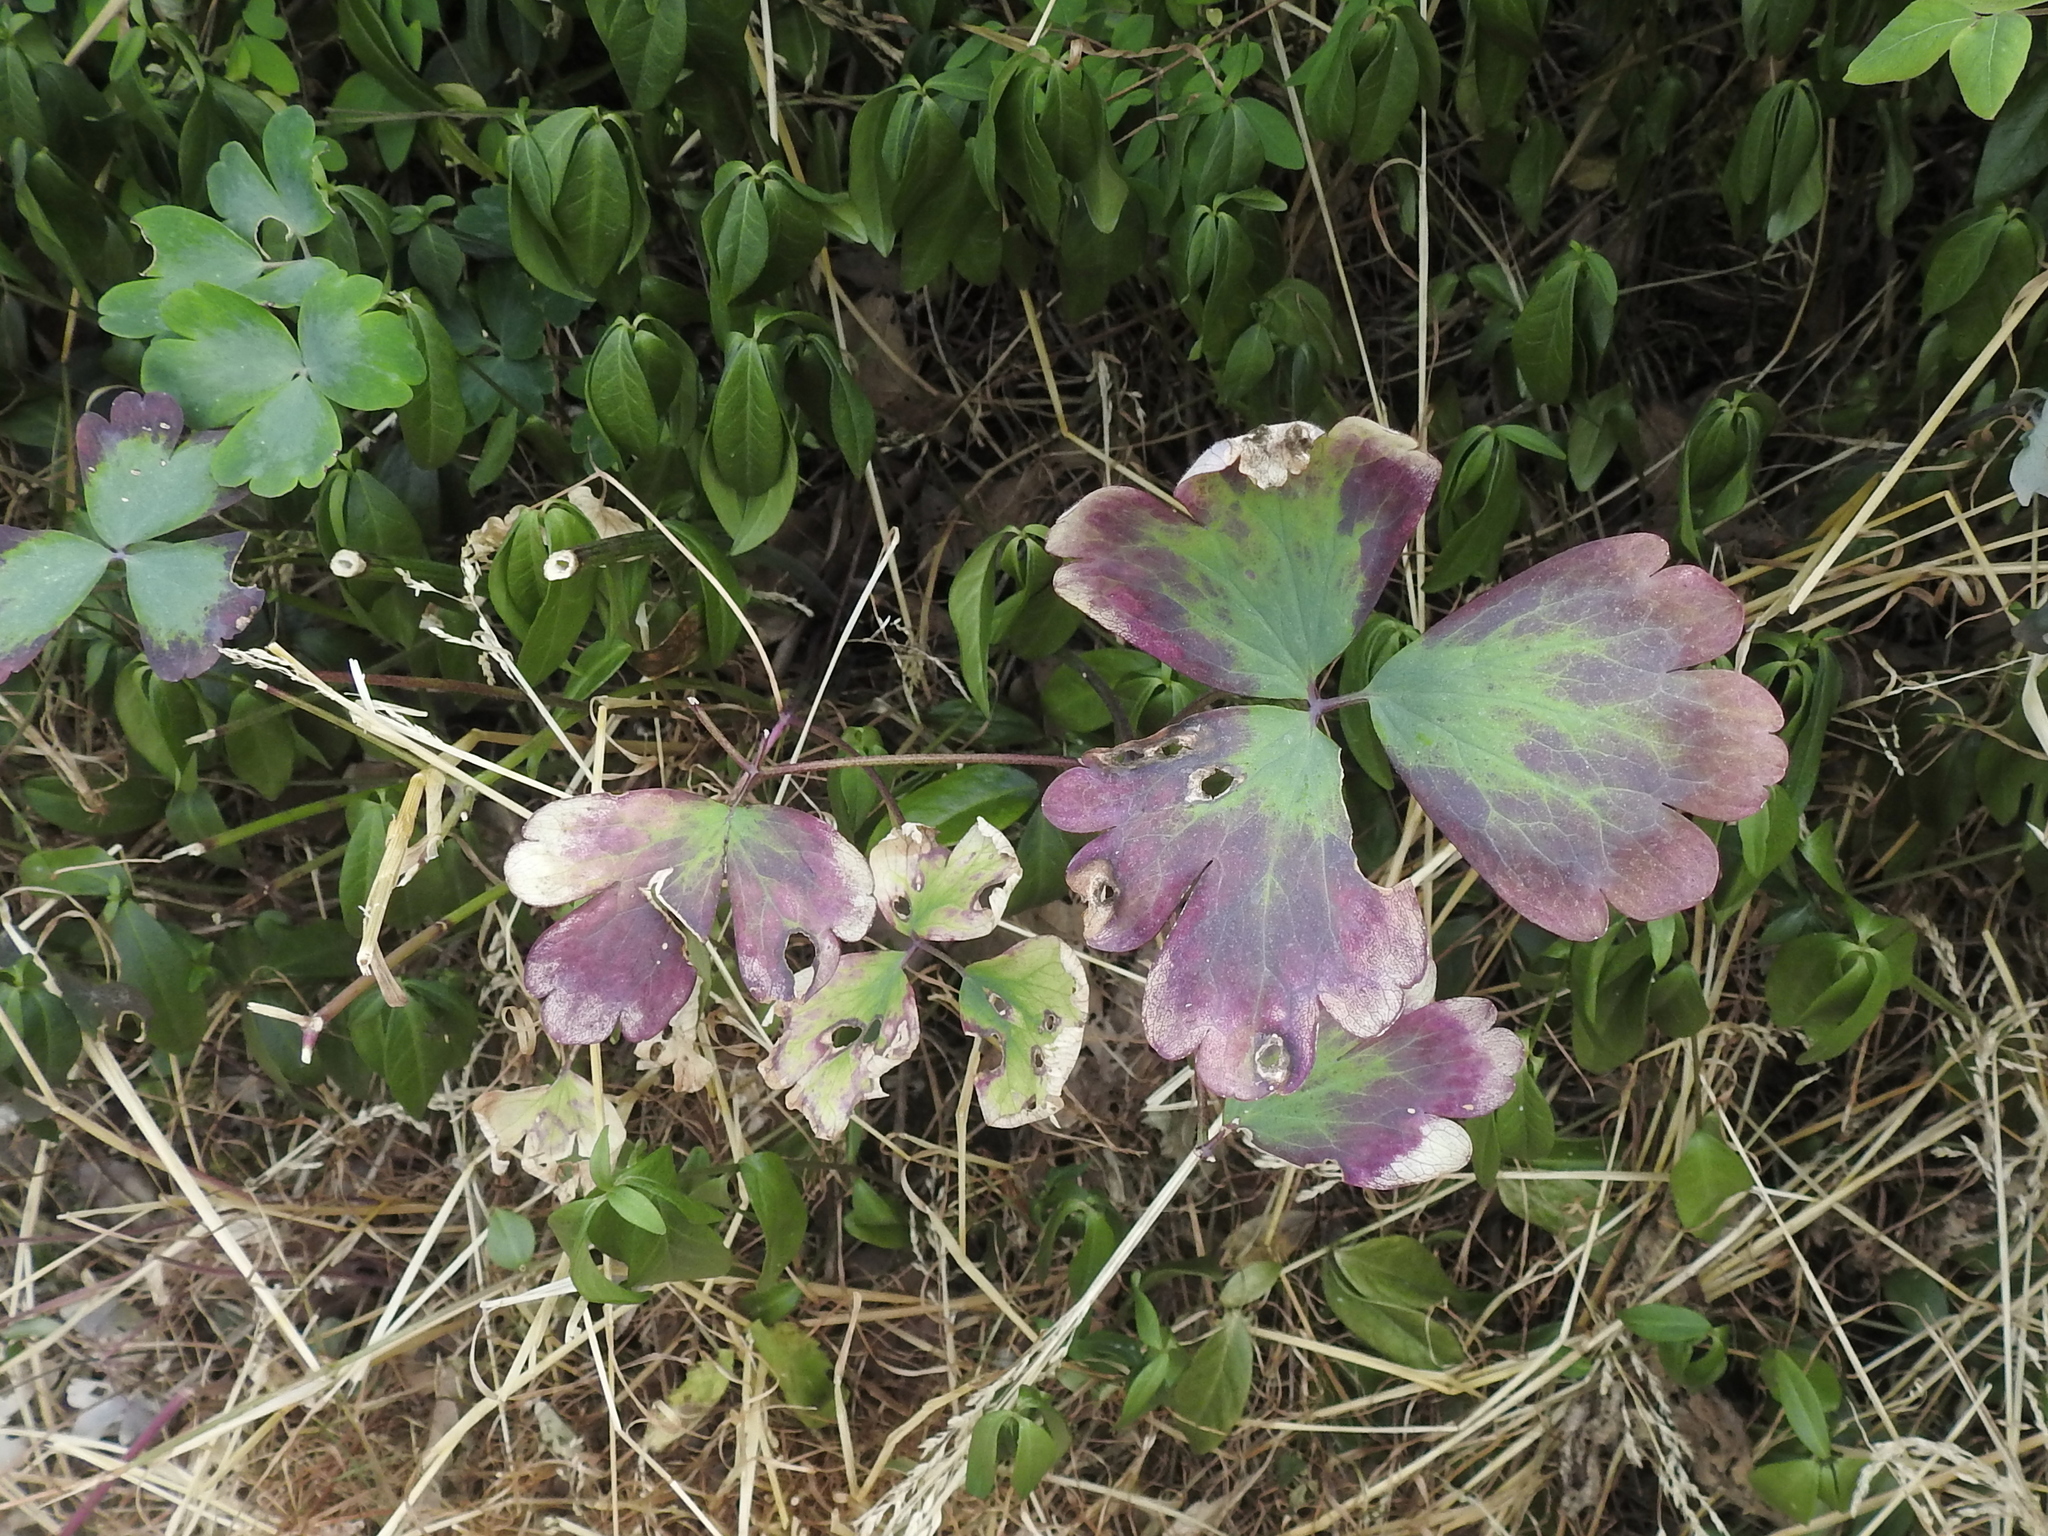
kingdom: Plantae
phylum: Tracheophyta
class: Magnoliopsida
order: Ranunculales
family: Ranunculaceae
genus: Aquilegia
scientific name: Aquilegia vulgaris
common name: Columbine
